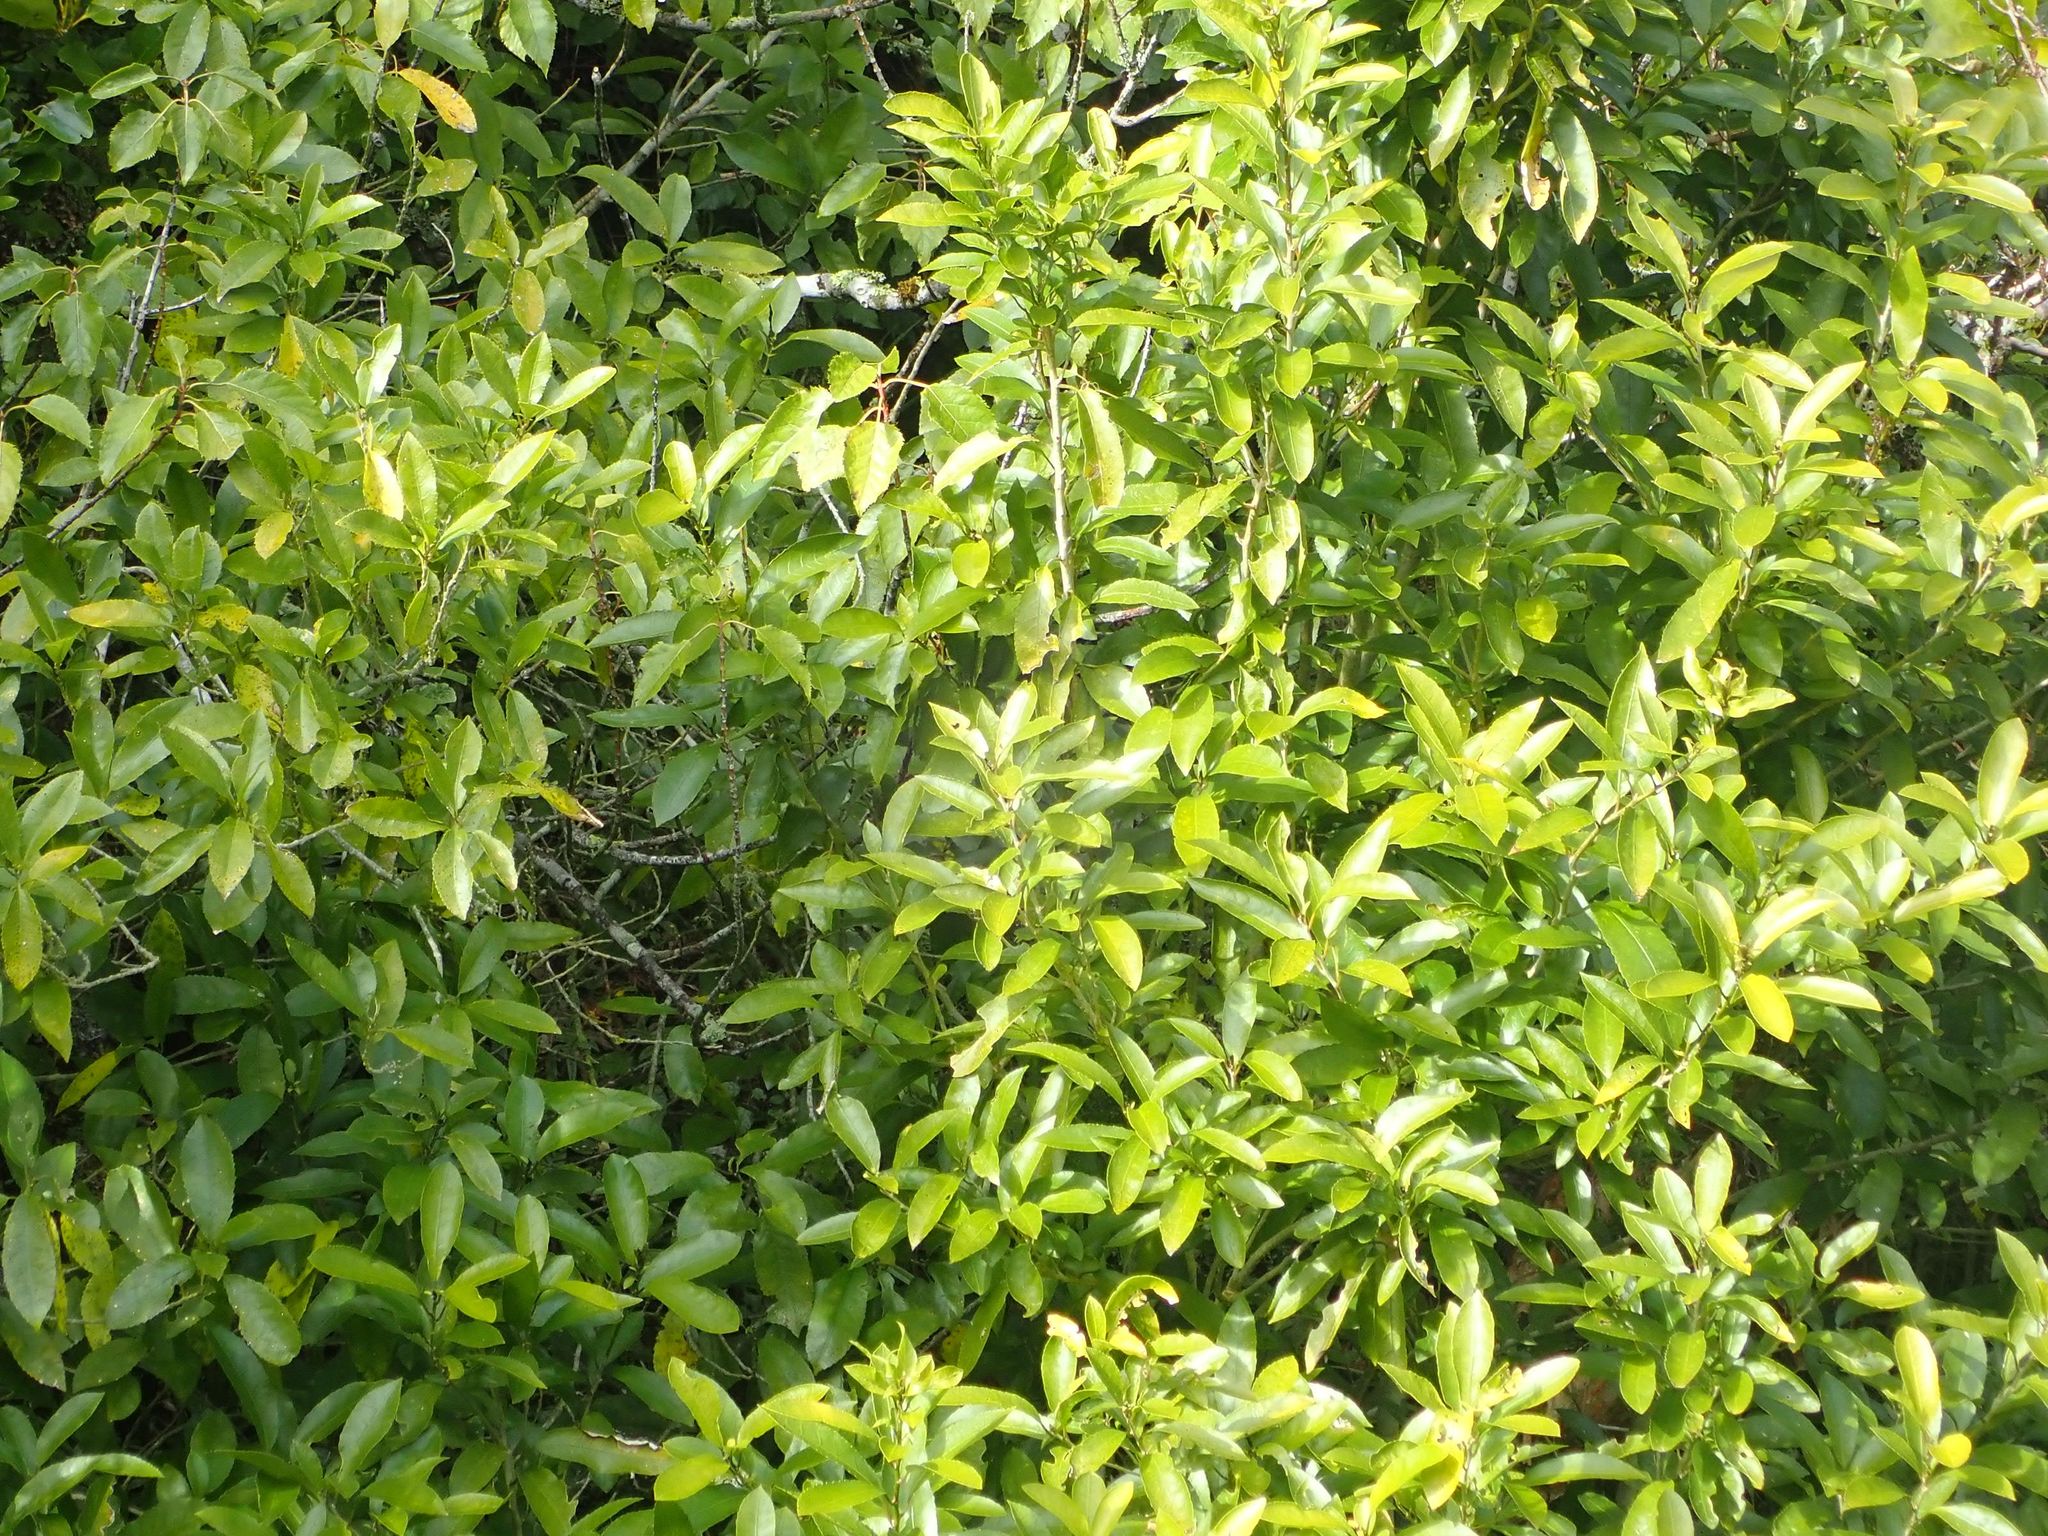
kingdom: Plantae
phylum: Tracheophyta
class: Magnoliopsida
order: Malpighiales
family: Violaceae
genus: Melicytus
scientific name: Melicytus ramiflorus
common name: Mahoe
